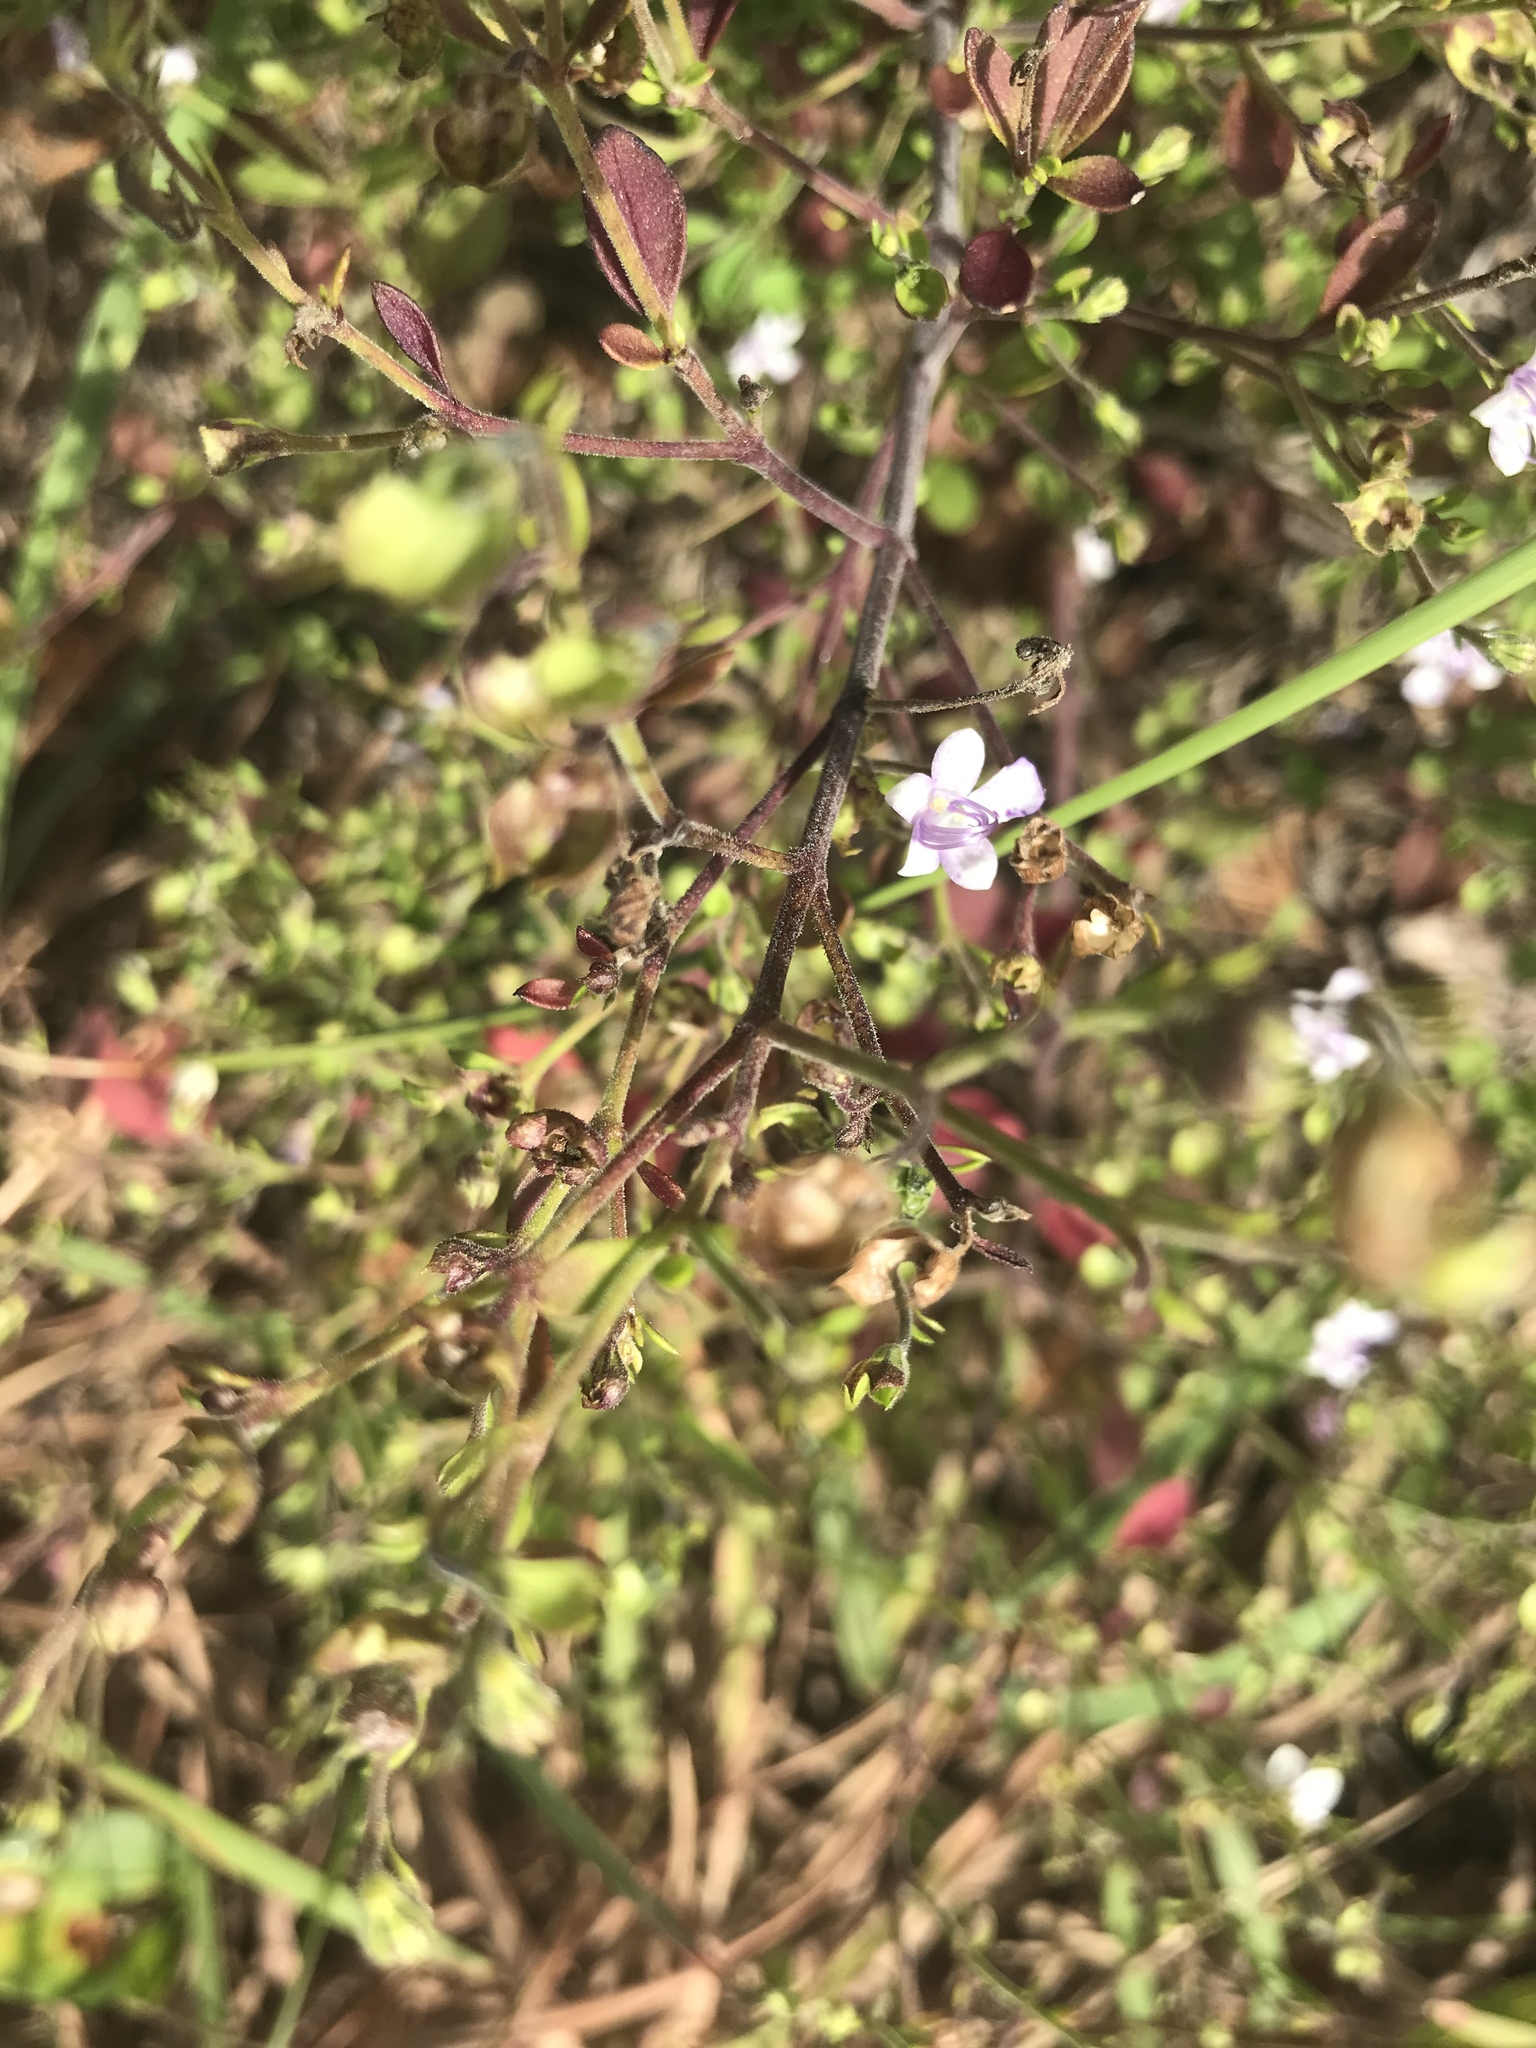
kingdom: Plantae
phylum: Tracheophyta
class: Magnoliopsida
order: Lamiales
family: Lamiaceae
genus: Trichostema
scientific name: Trichostema nesophilum
